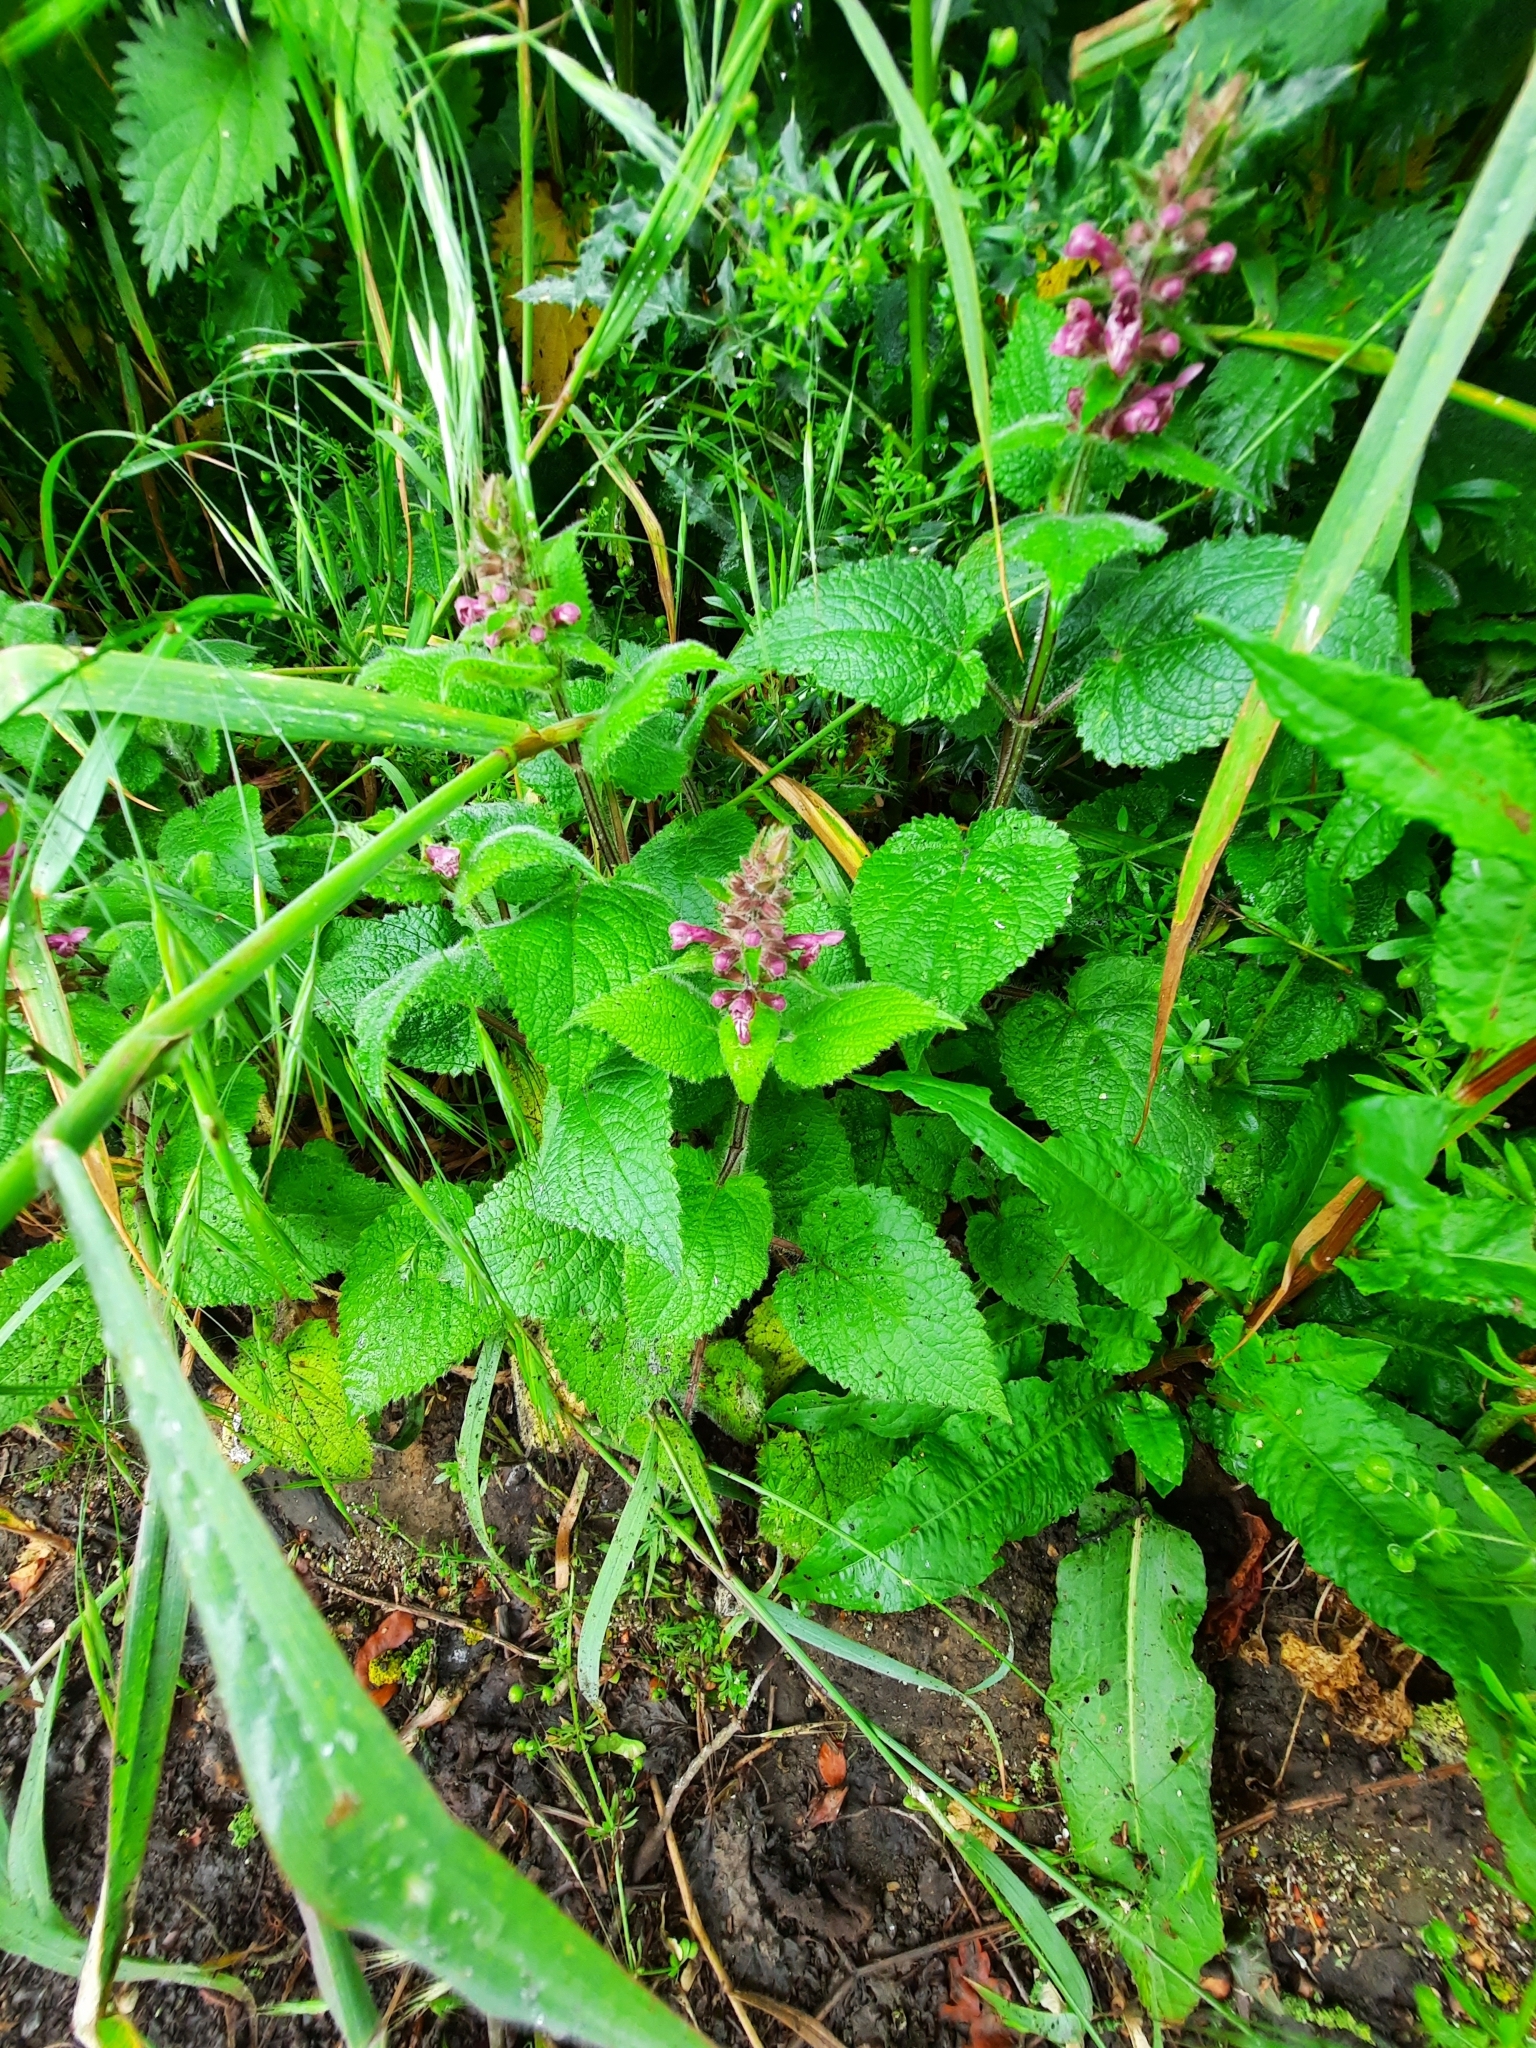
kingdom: Plantae
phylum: Tracheophyta
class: Magnoliopsida
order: Lamiales
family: Lamiaceae
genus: Stachys
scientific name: Stachys sylvatica
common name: Hedge woundwort
